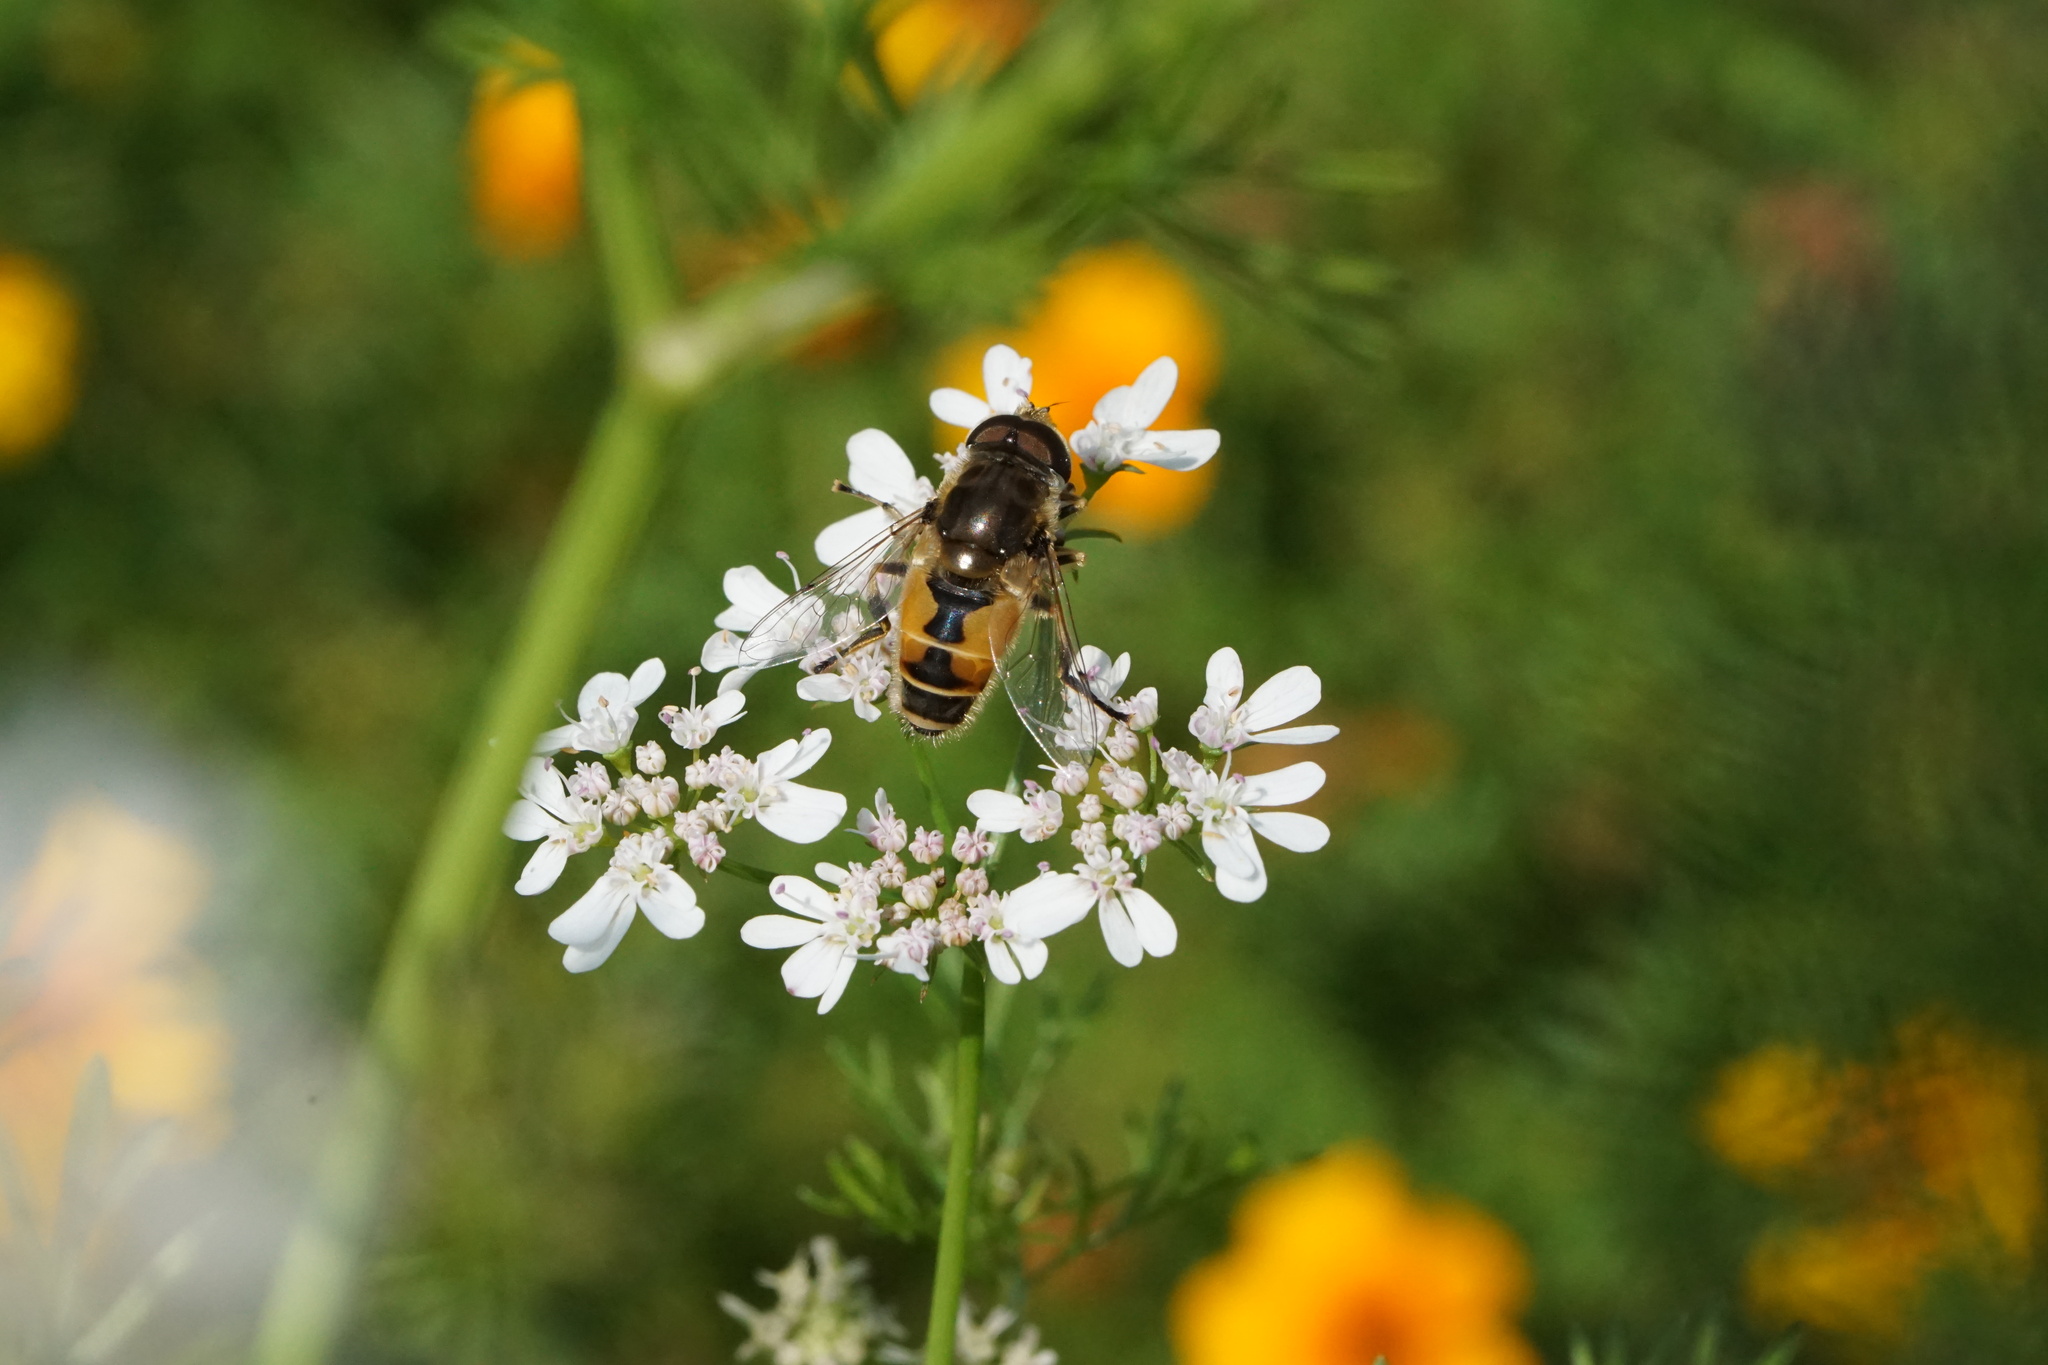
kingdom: Animalia
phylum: Arthropoda
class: Insecta
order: Diptera
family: Syrphidae
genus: Eristalis
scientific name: Eristalis arbustorum
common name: Hover fly
